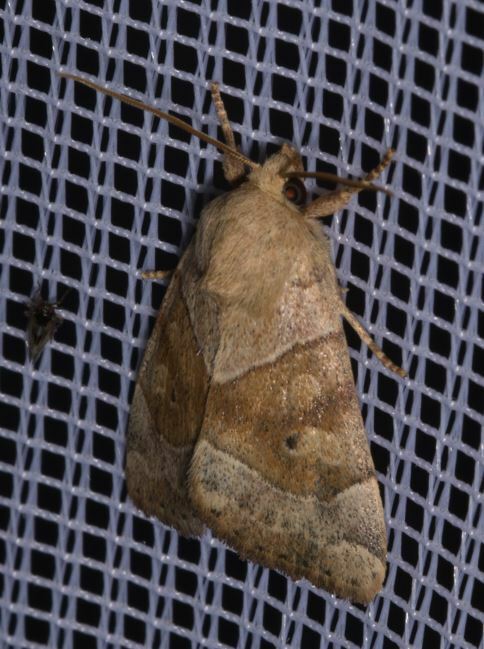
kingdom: Animalia
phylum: Arthropoda
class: Insecta
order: Lepidoptera
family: Noctuidae
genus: Cosmia
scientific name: Cosmia trapezina
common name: Dun-bar
